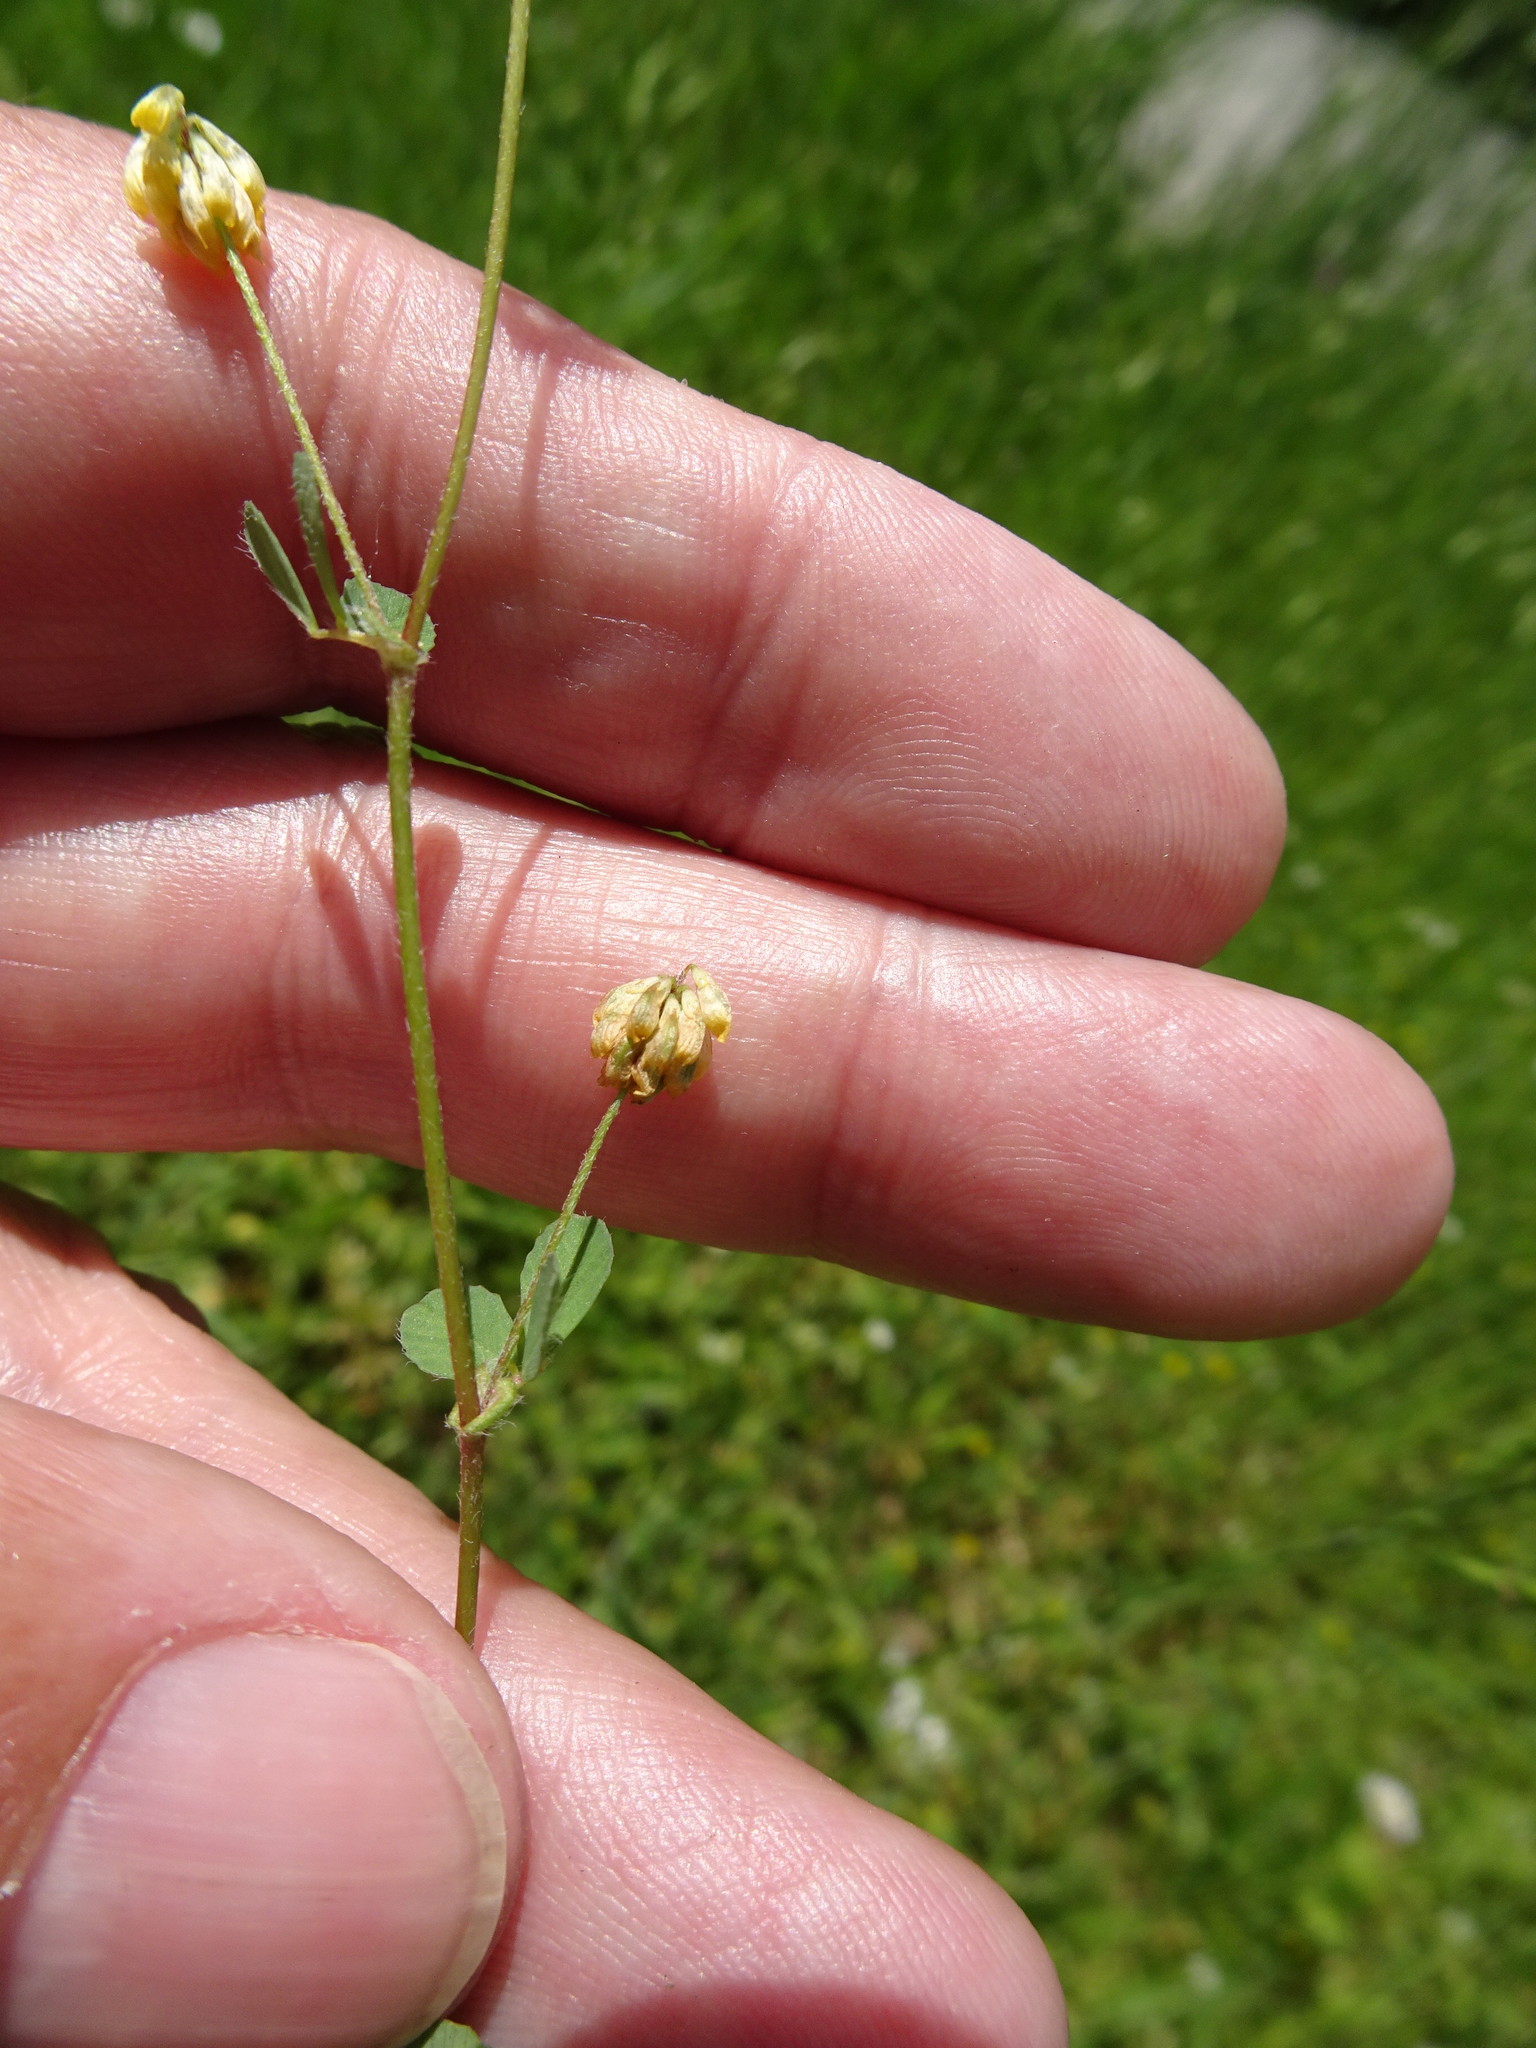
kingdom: Plantae
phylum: Tracheophyta
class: Magnoliopsida
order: Fabales
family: Fabaceae
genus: Trifolium
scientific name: Trifolium campestre
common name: Field clover
